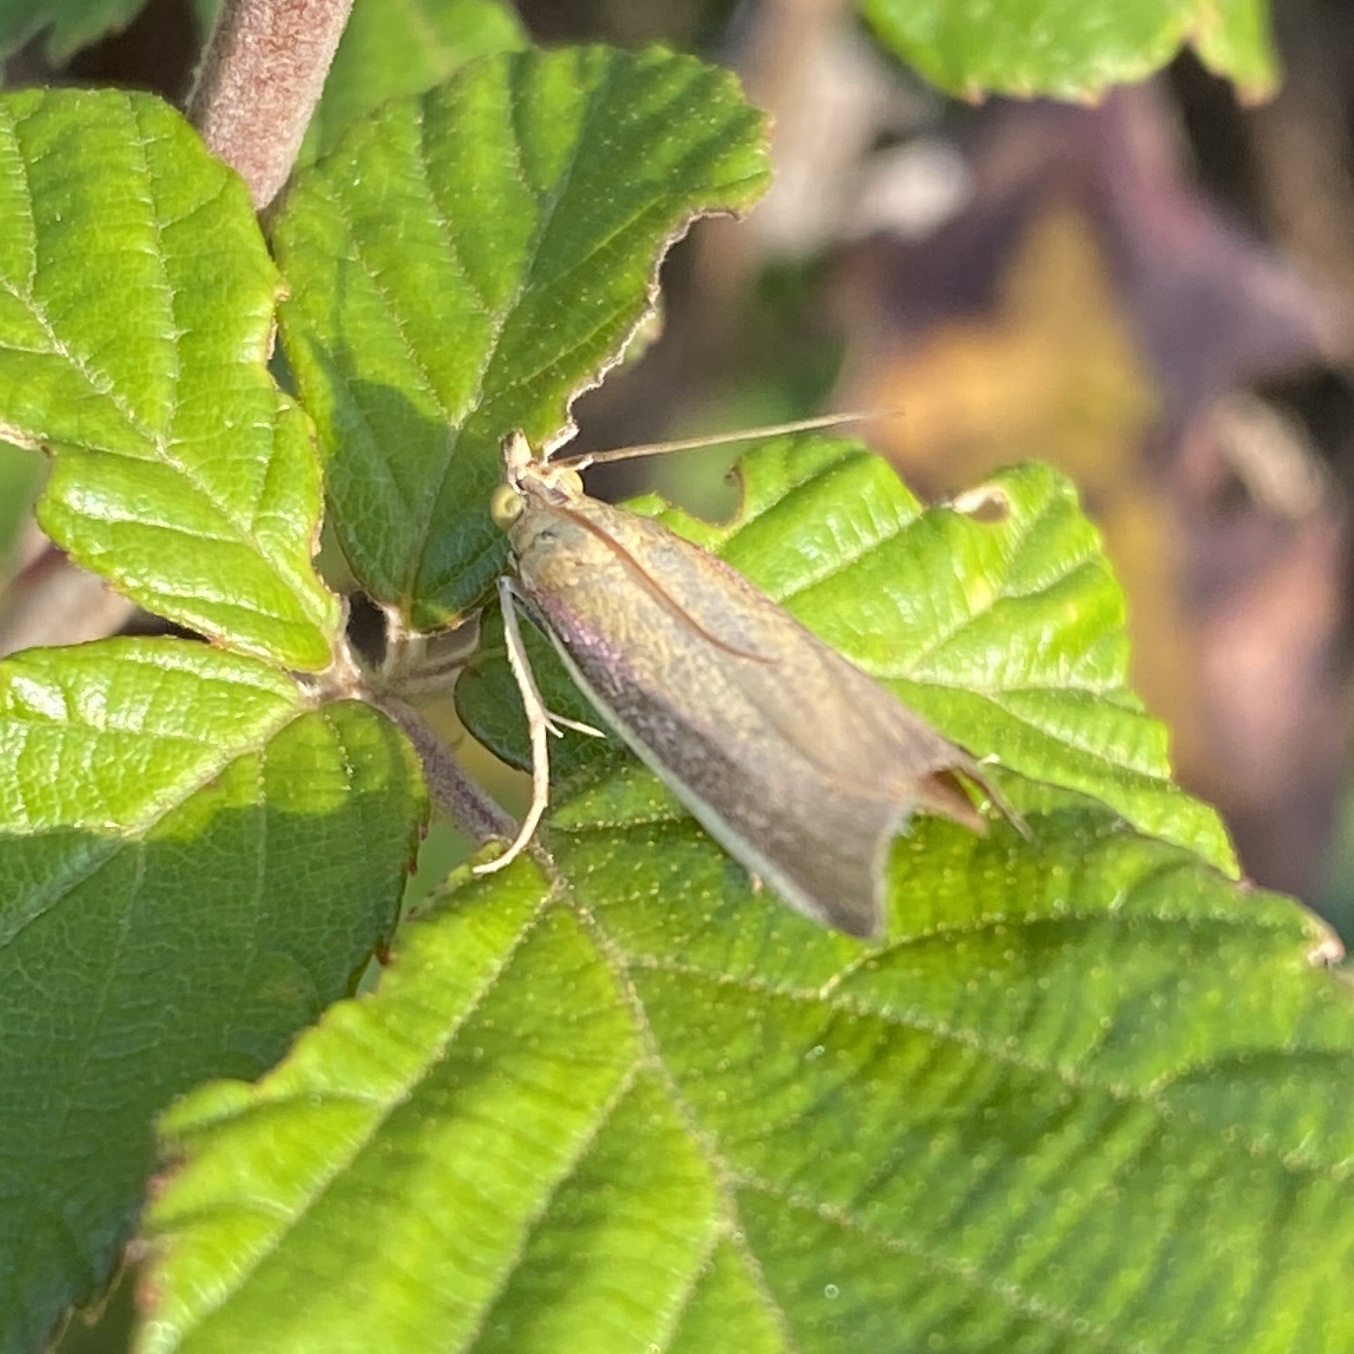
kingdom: Animalia
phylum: Arthropoda
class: Insecta
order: Lepidoptera
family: Pyralidae
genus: Oncocera
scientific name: Oncocera semirubella
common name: Rosy-striped knot-horn
